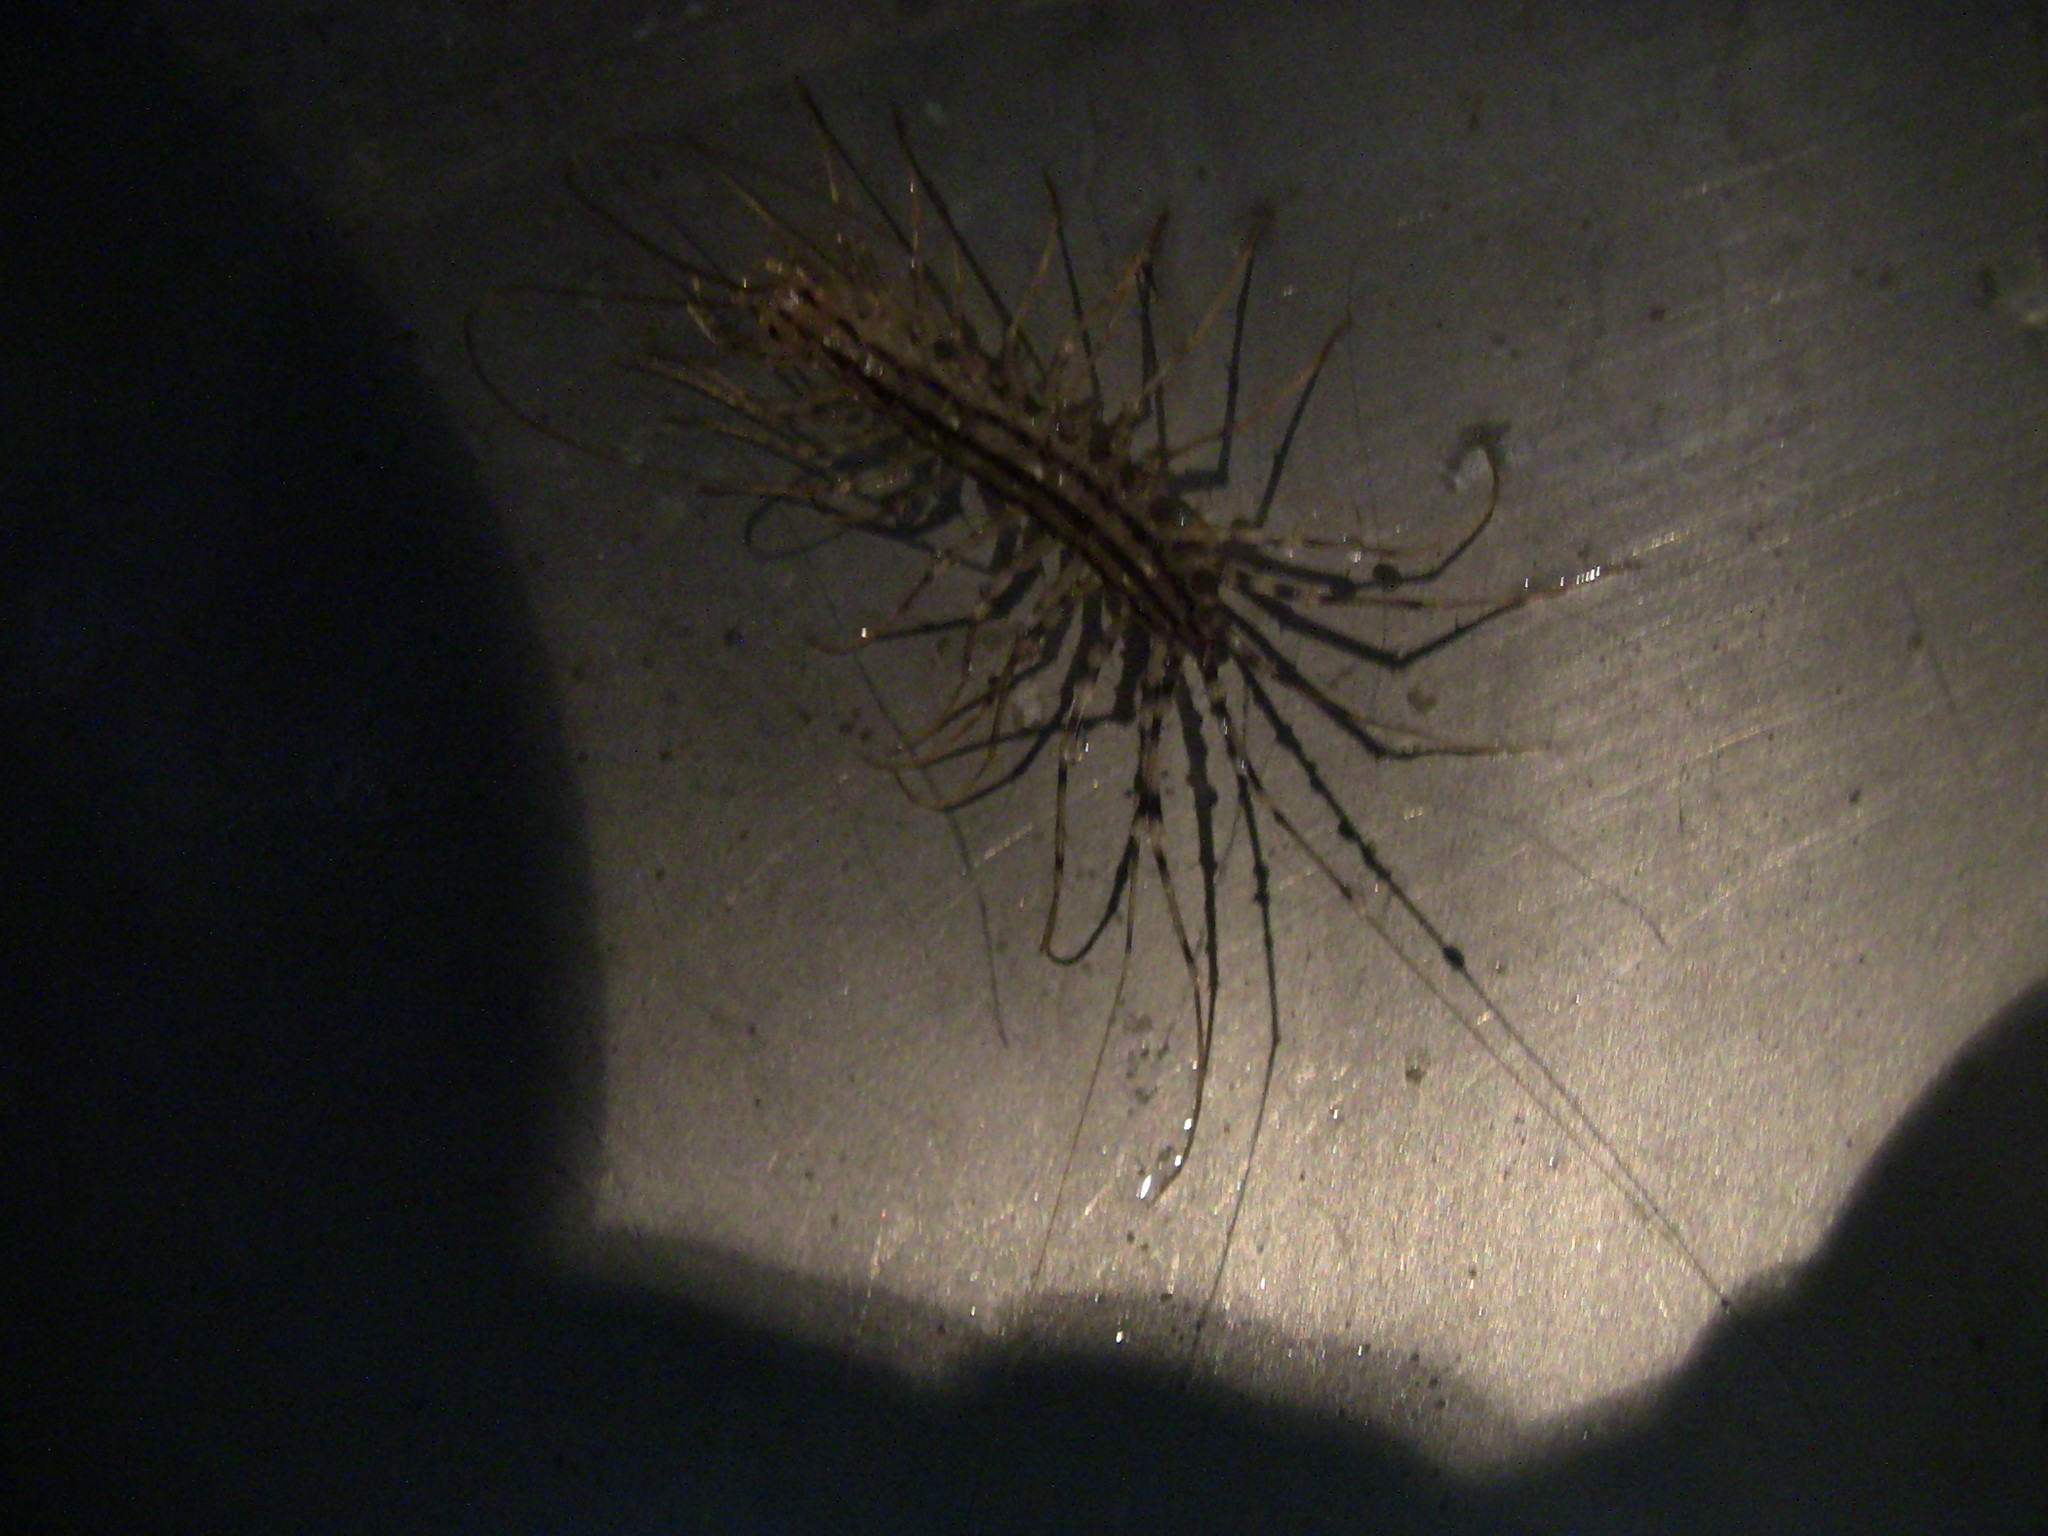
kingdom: Animalia
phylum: Arthropoda
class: Chilopoda
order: Scutigeromorpha
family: Scutigeridae
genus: Scutigera
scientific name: Scutigera coleoptrata
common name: House centipede
